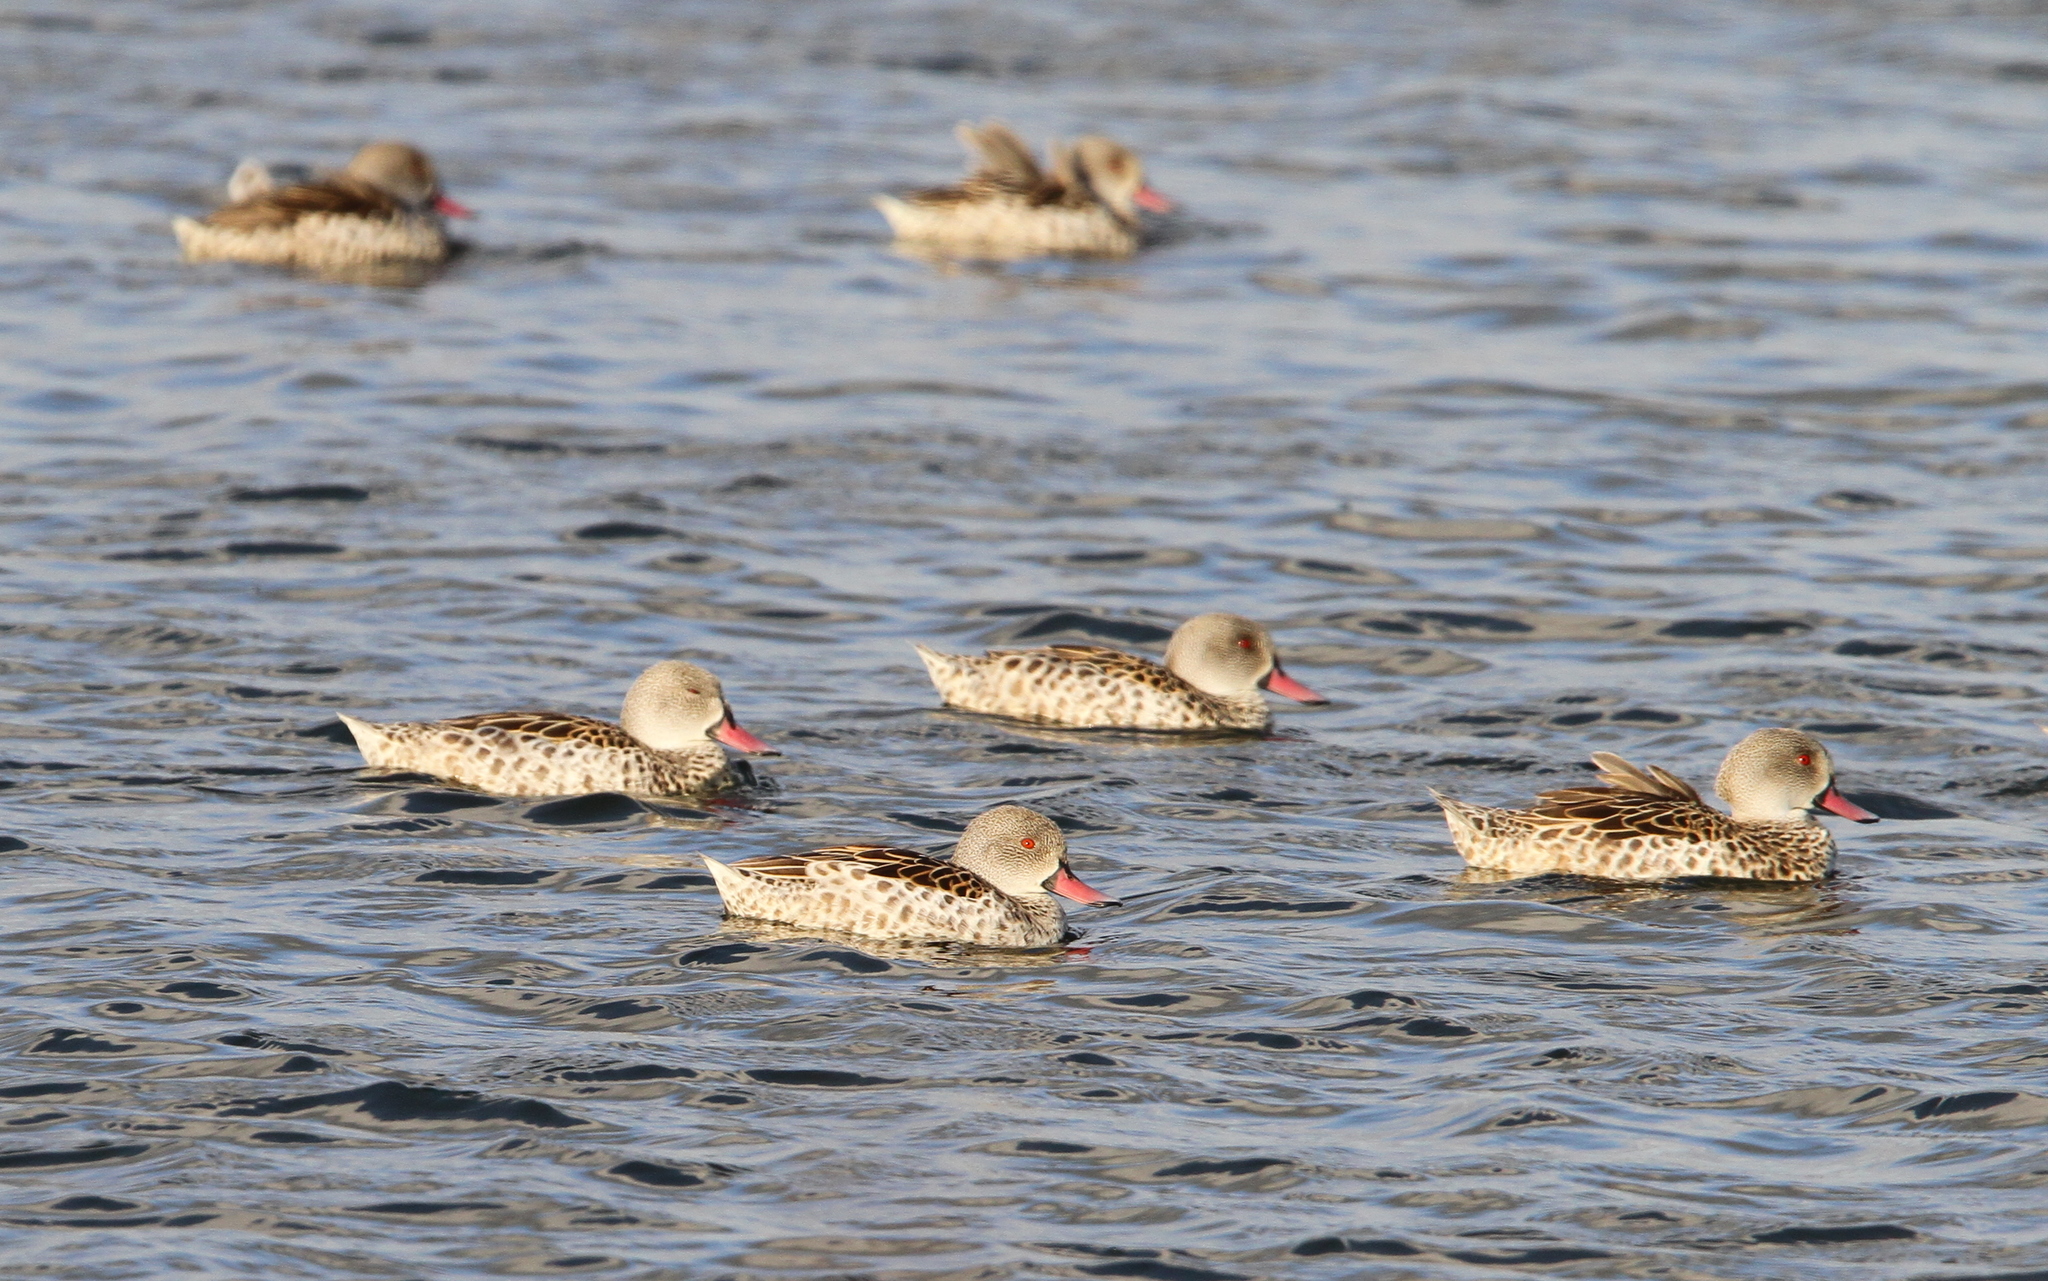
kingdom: Animalia
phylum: Chordata
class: Aves
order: Anseriformes
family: Anatidae
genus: Anas
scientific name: Anas capensis
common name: Cape teal
